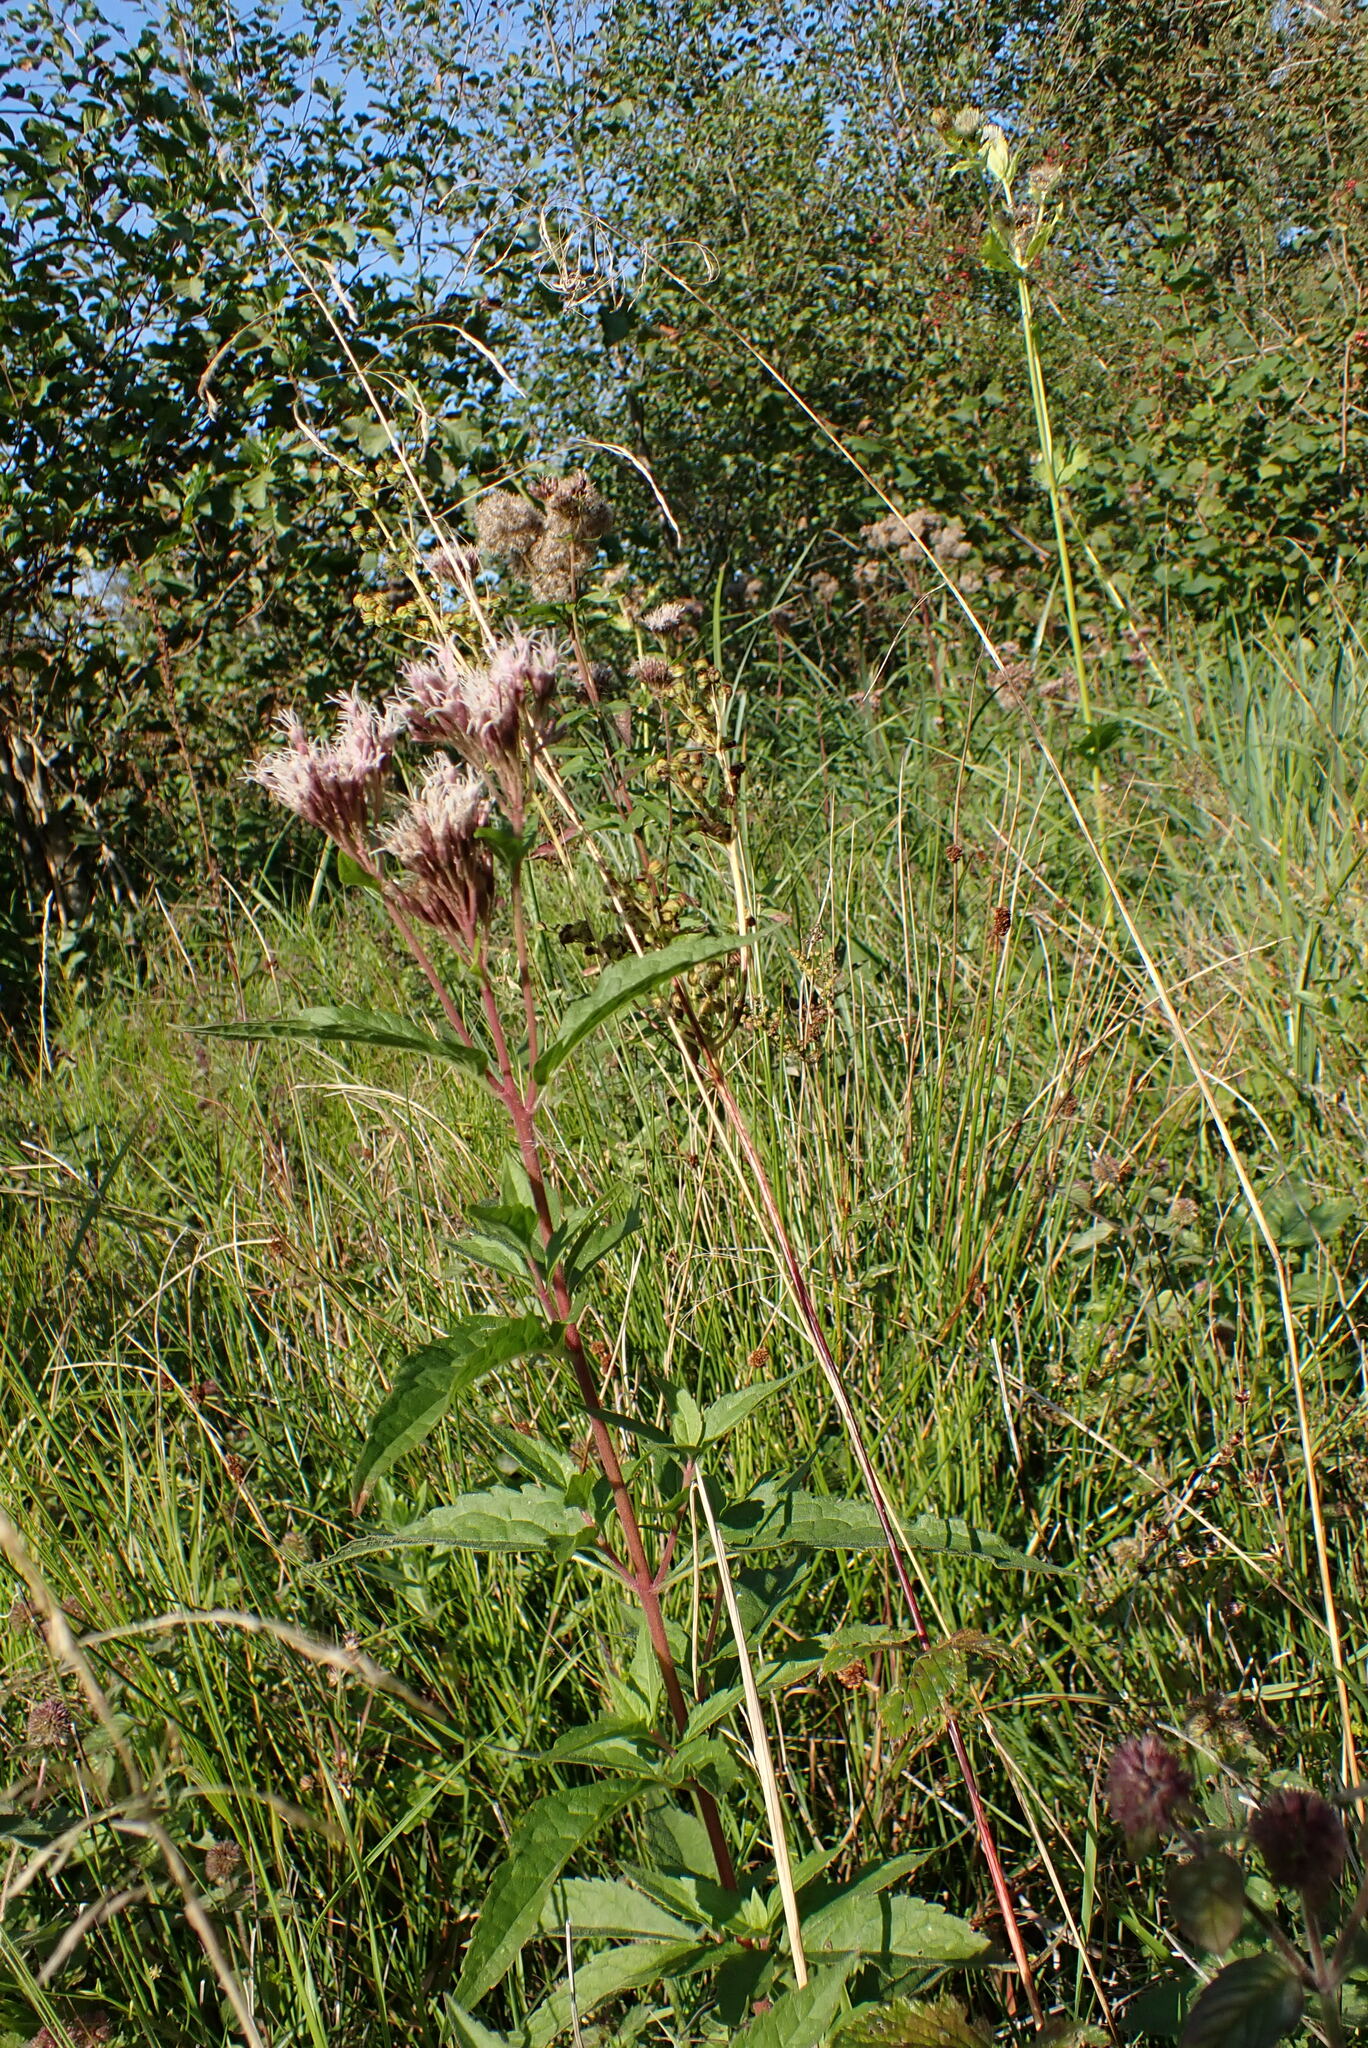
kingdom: Plantae
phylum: Tracheophyta
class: Magnoliopsida
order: Asterales
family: Asteraceae
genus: Eupatorium
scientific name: Eupatorium cannabinum
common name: Hemp-agrimony
